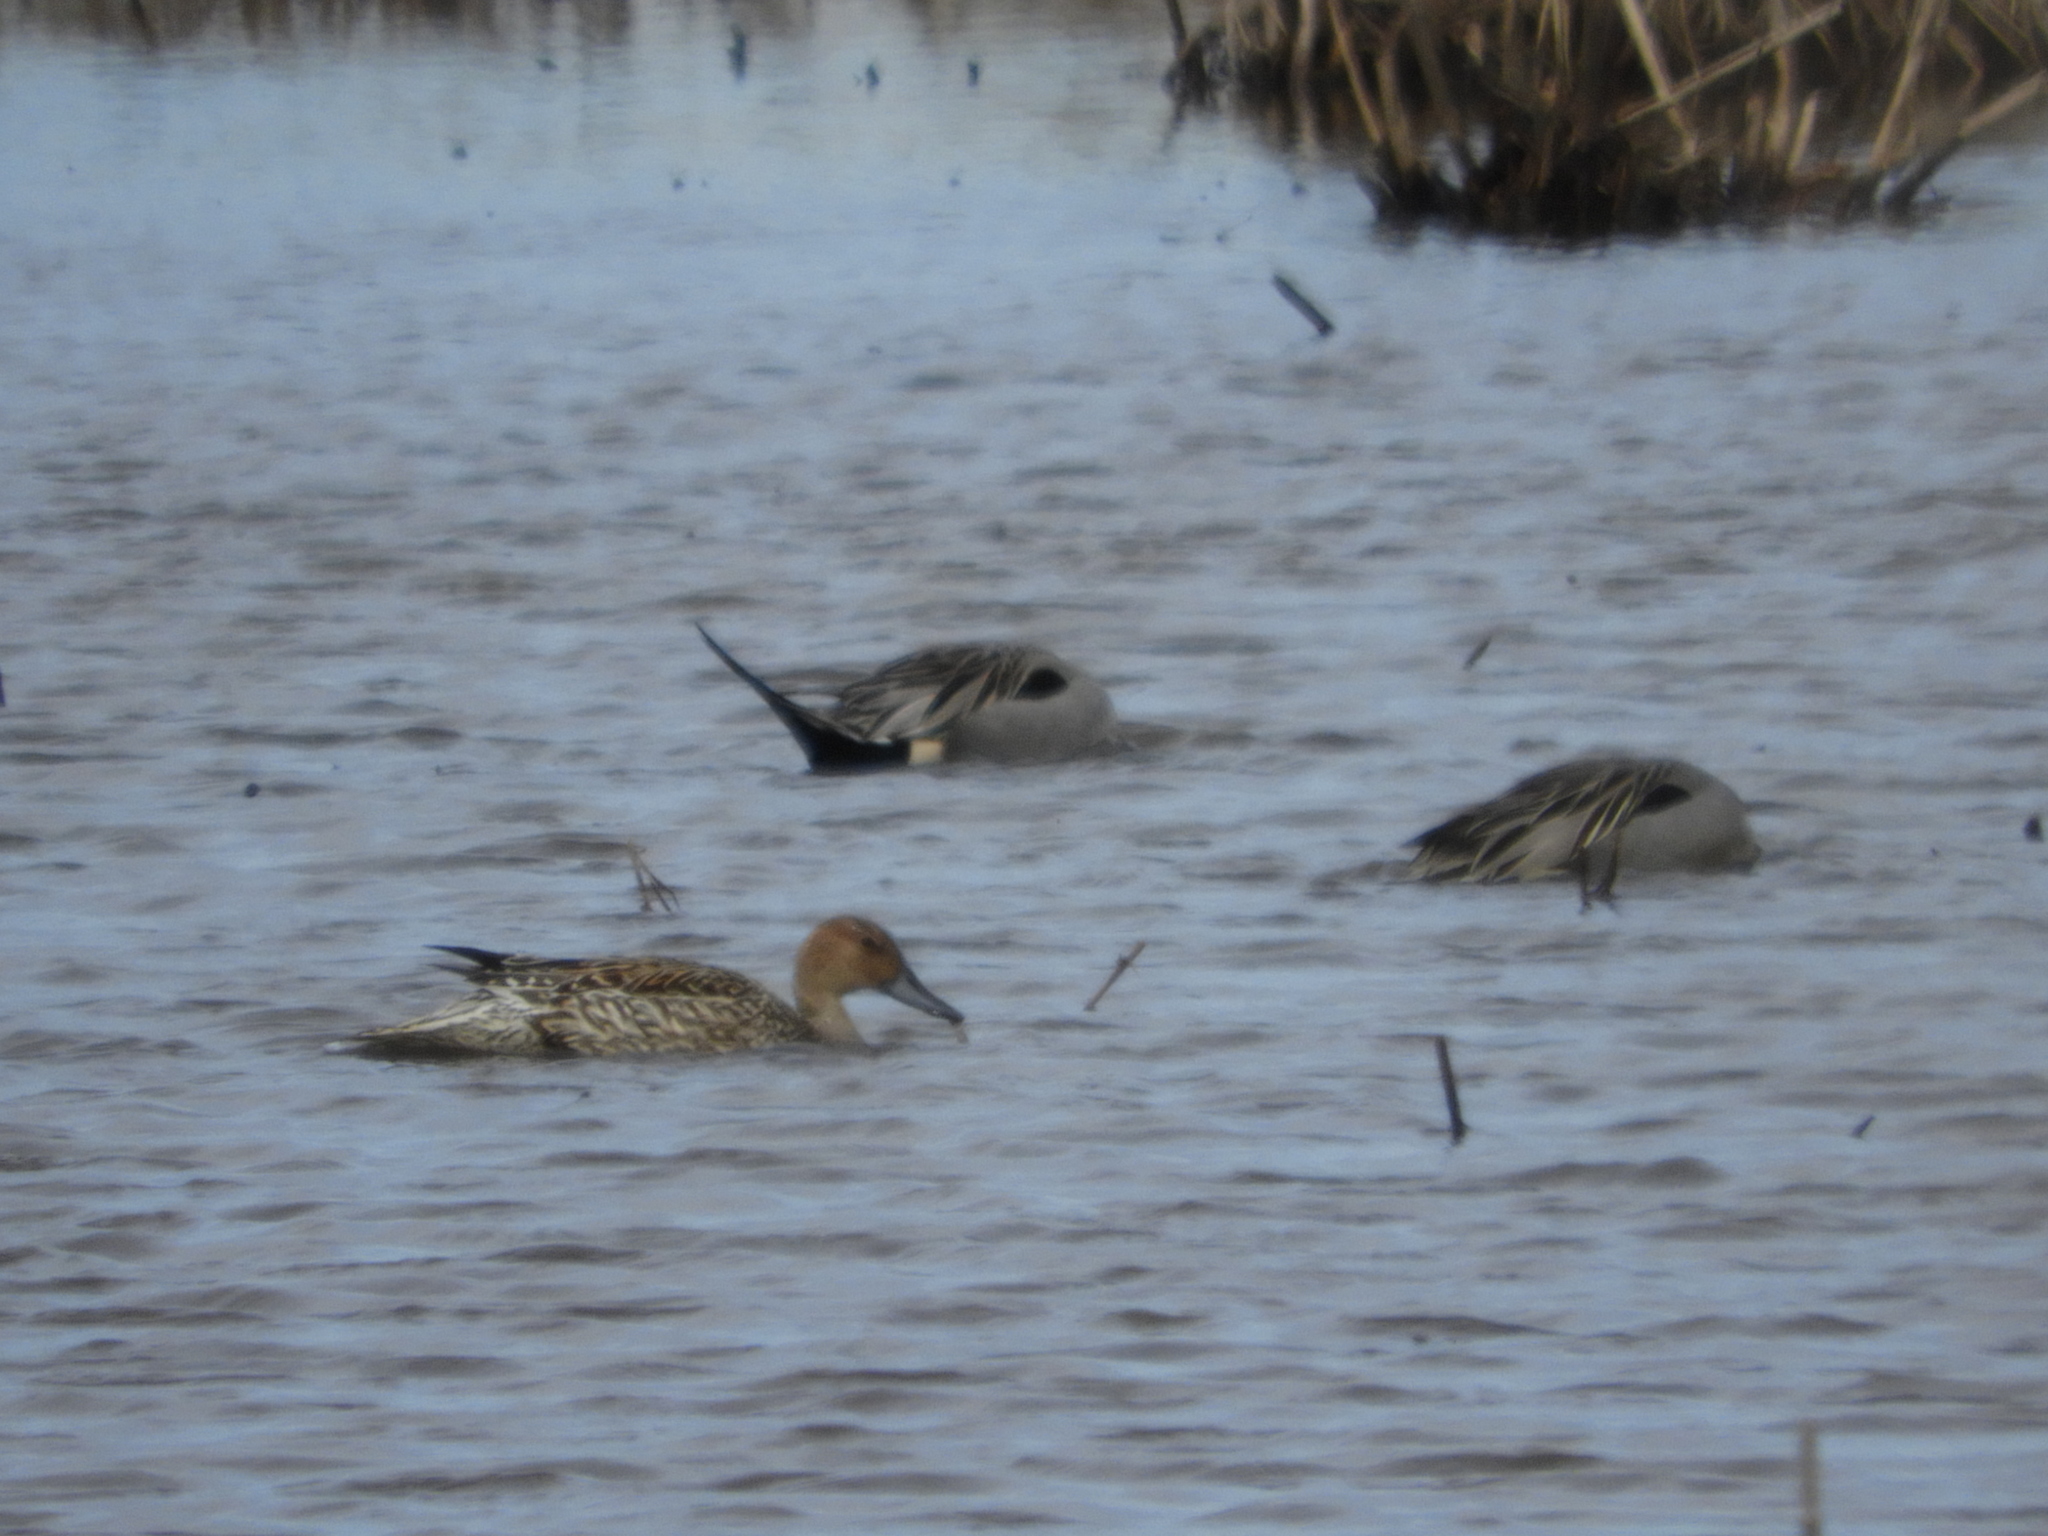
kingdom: Animalia
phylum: Chordata
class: Aves
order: Anseriformes
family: Anatidae
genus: Anas
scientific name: Anas acuta
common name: Northern pintail
